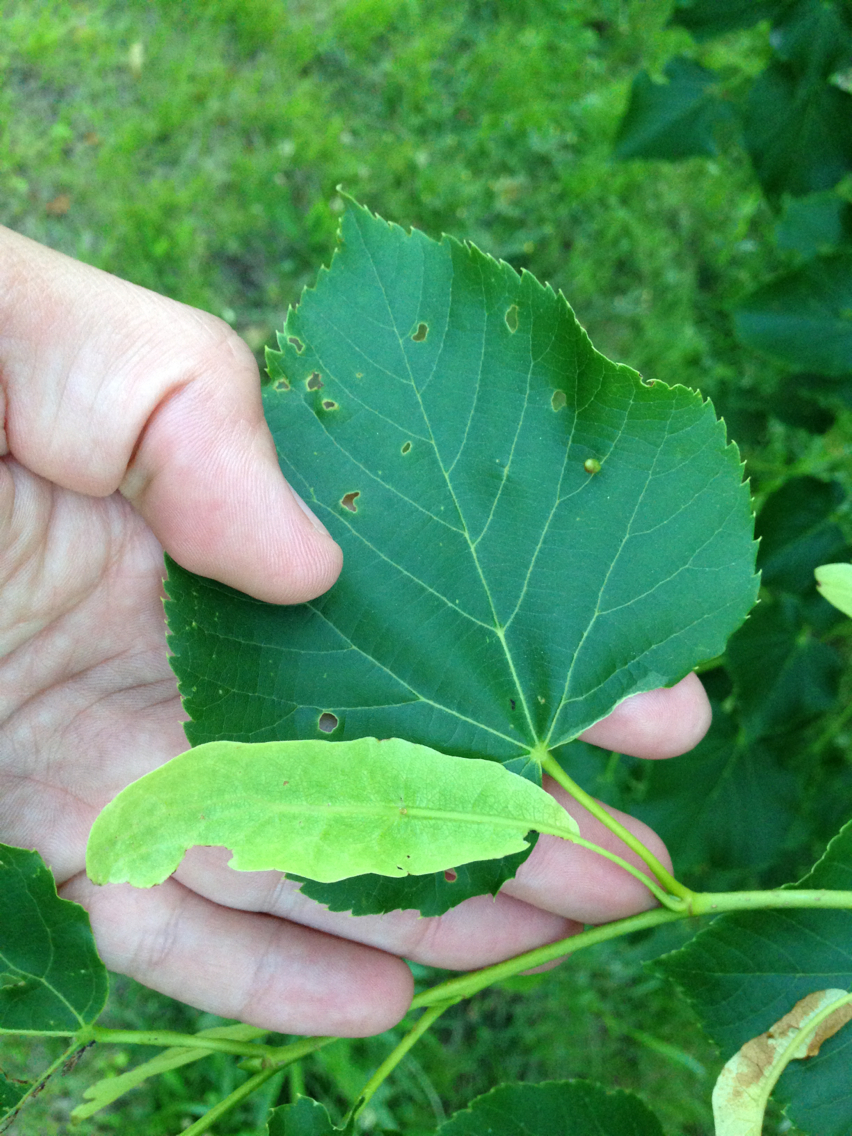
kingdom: Plantae
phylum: Tracheophyta
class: Magnoliopsida
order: Malvales
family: Malvaceae
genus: Tilia
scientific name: Tilia americana
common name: Basswood
